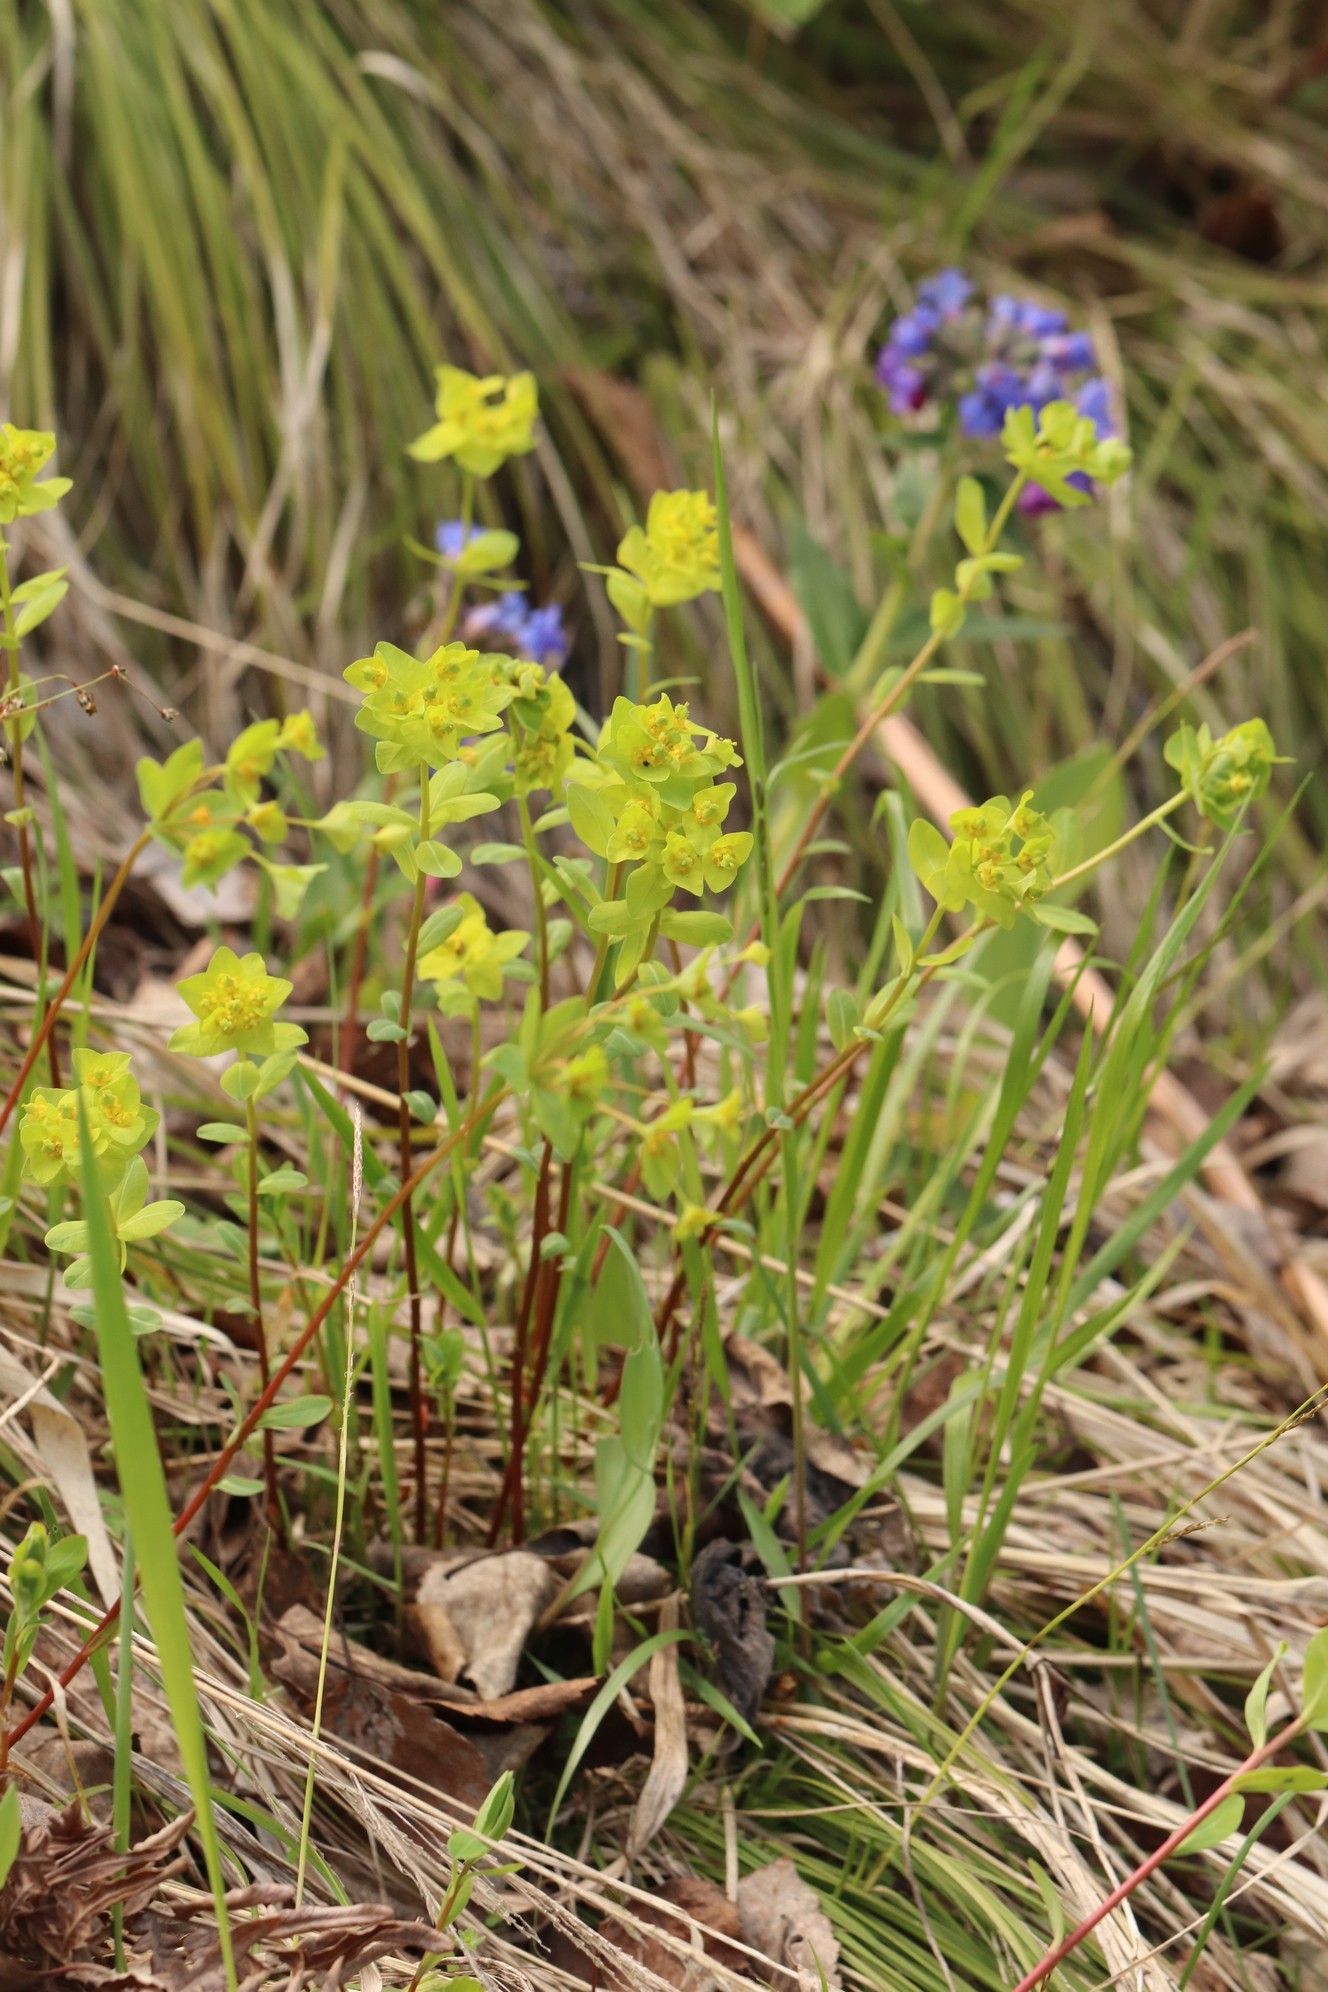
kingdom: Plantae
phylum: Tracheophyta
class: Magnoliopsida
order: Malpighiales
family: Euphorbiaceae
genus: Euphorbia
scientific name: Euphorbia altaica
